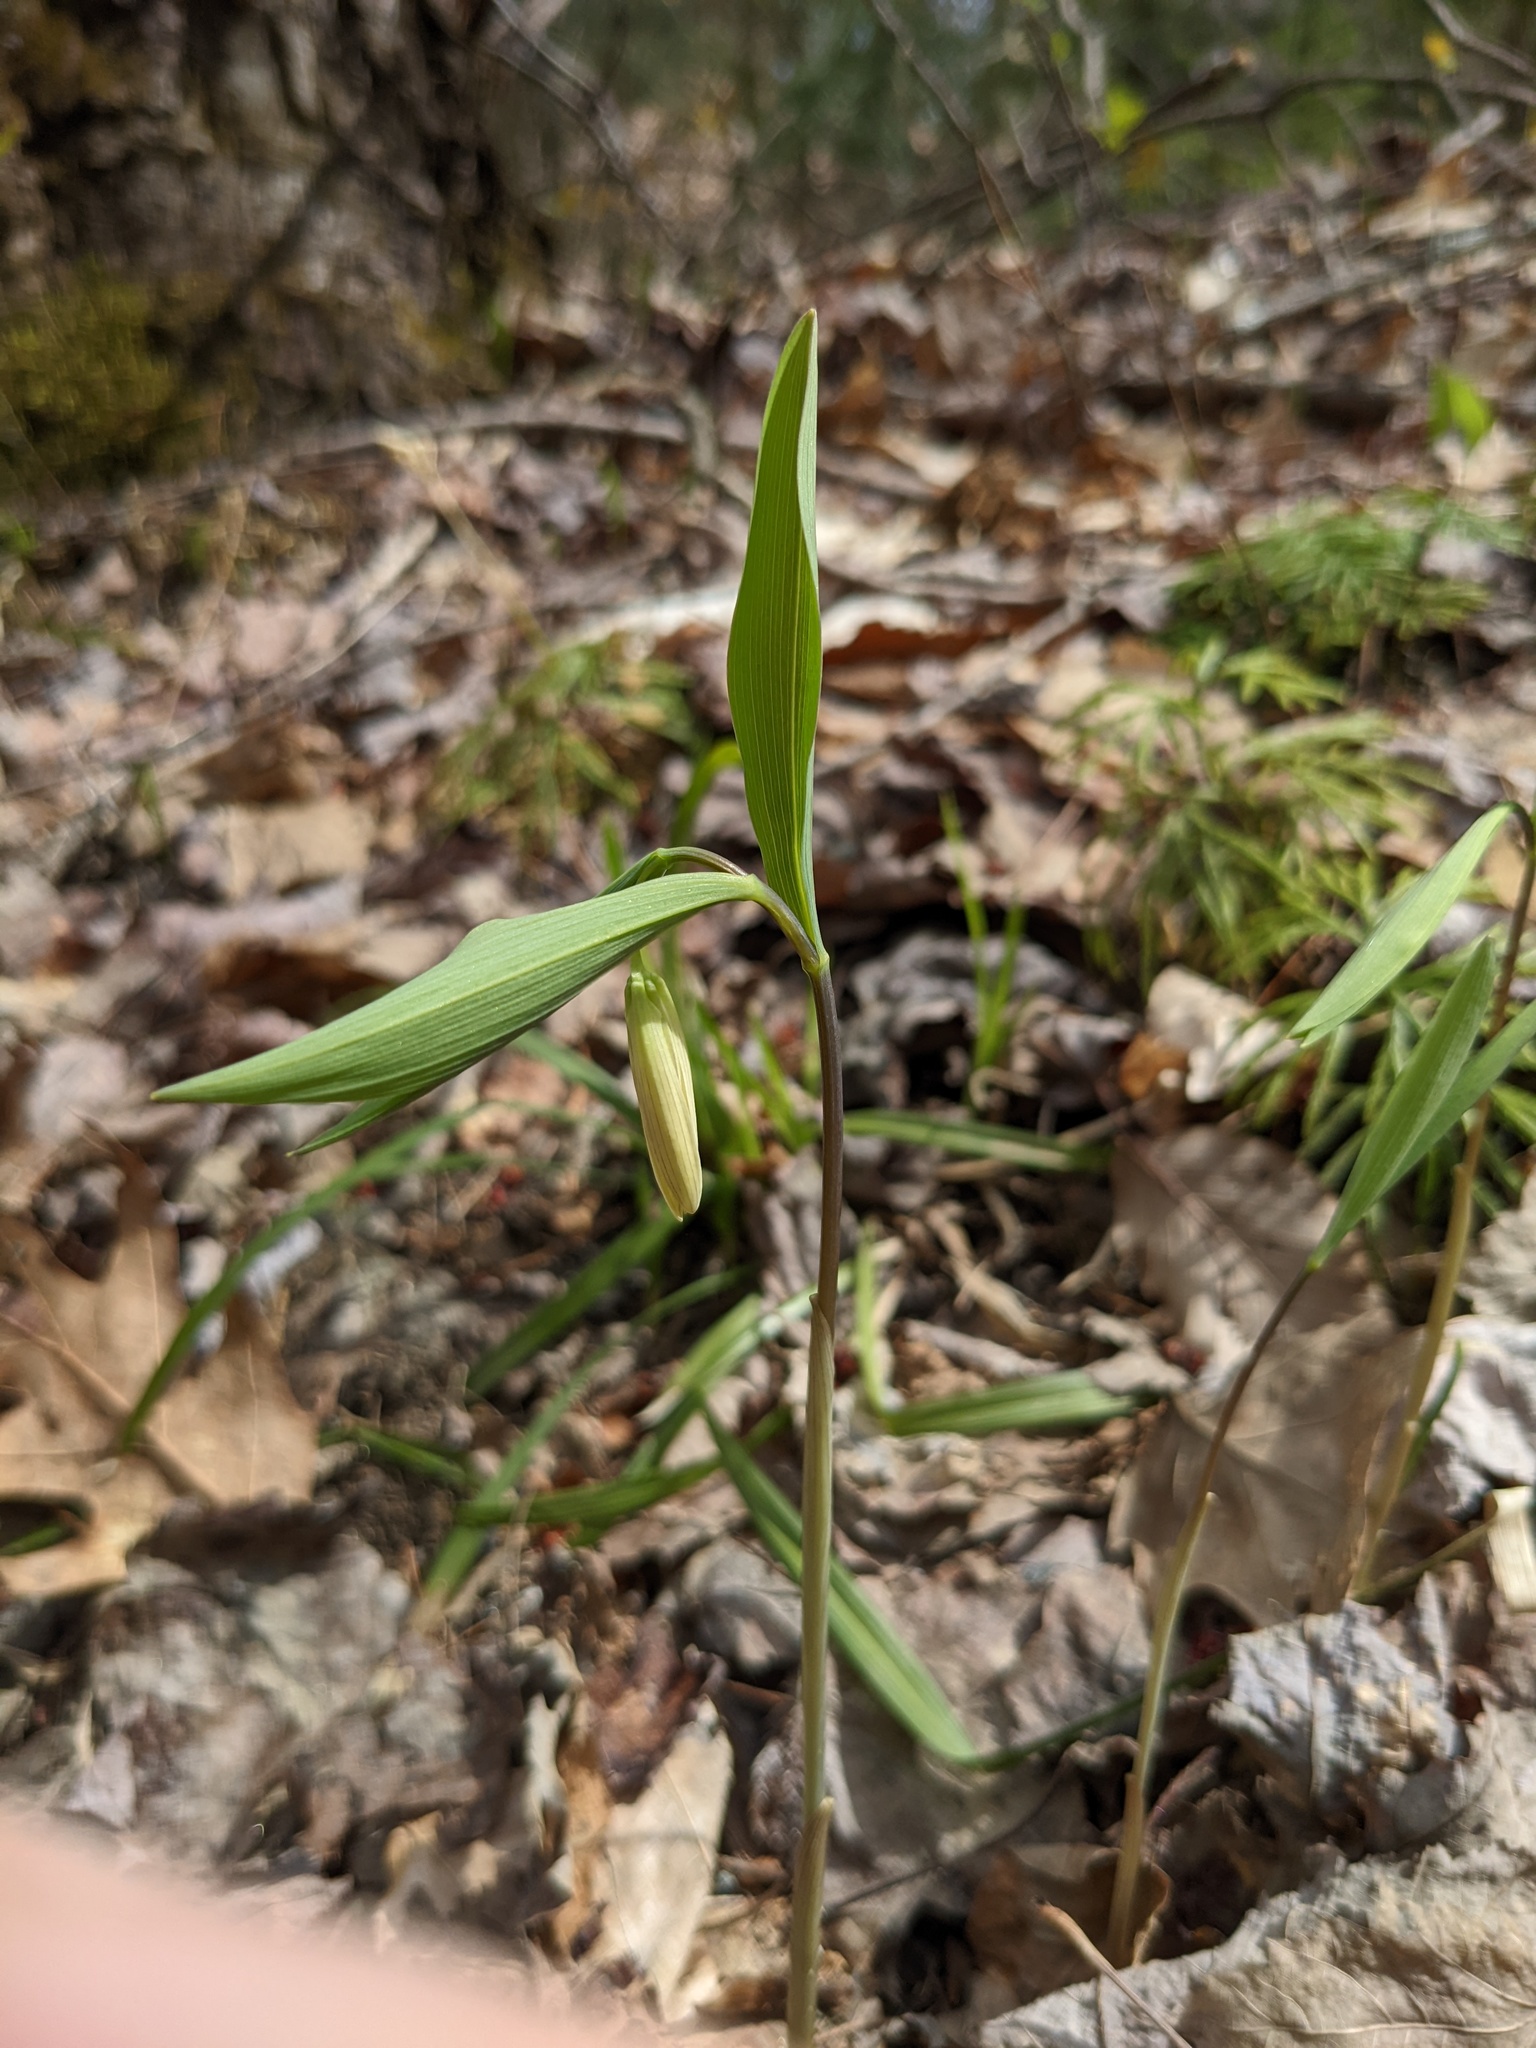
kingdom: Plantae
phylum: Tracheophyta
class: Liliopsida
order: Liliales
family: Colchicaceae
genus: Uvularia
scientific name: Uvularia sessilifolia
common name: Straw-lily
